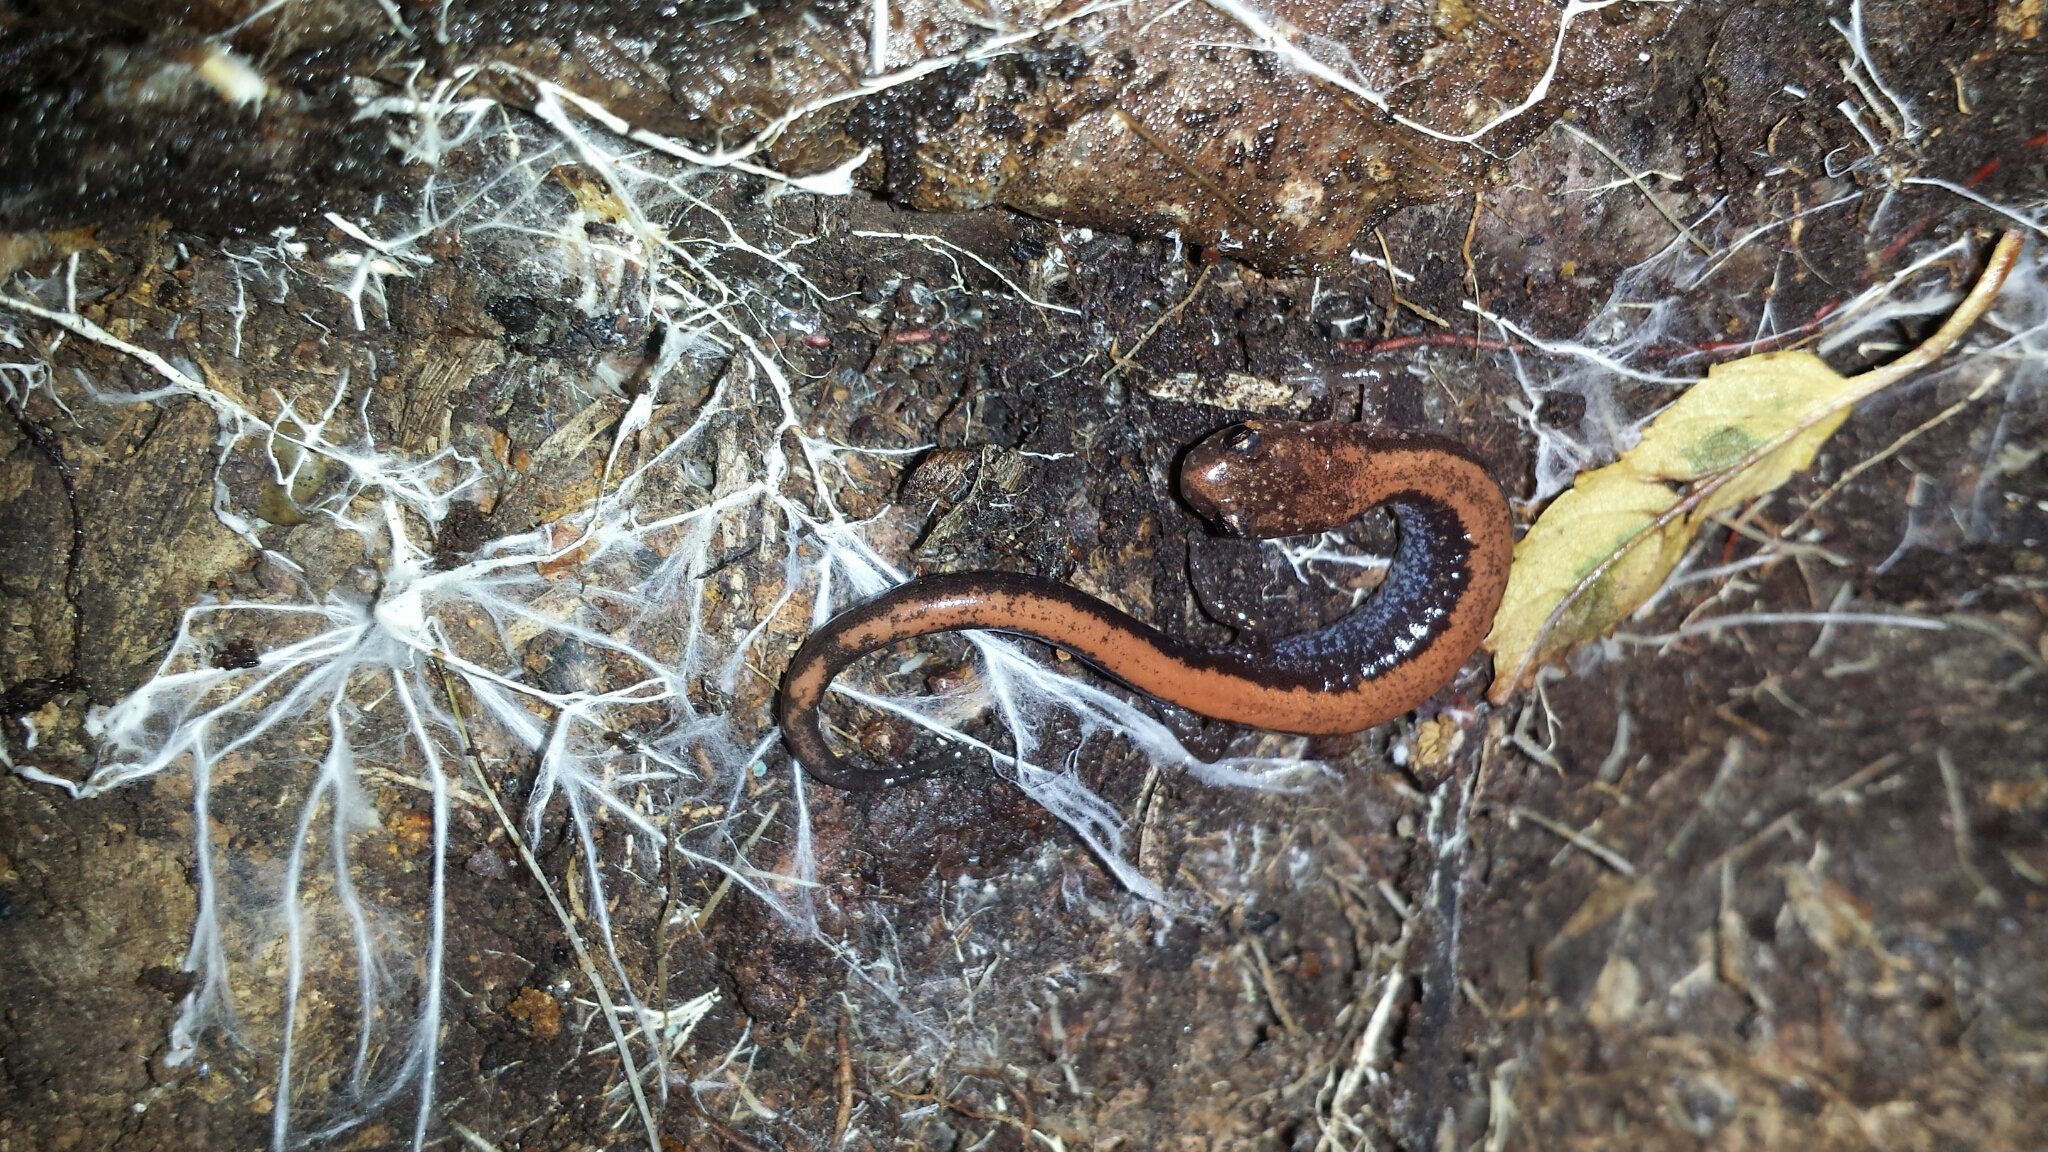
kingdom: Animalia
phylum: Chordata
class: Amphibia
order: Caudata
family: Plethodontidae
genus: Plethodon
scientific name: Plethodon cinereus
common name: Redback salamander
